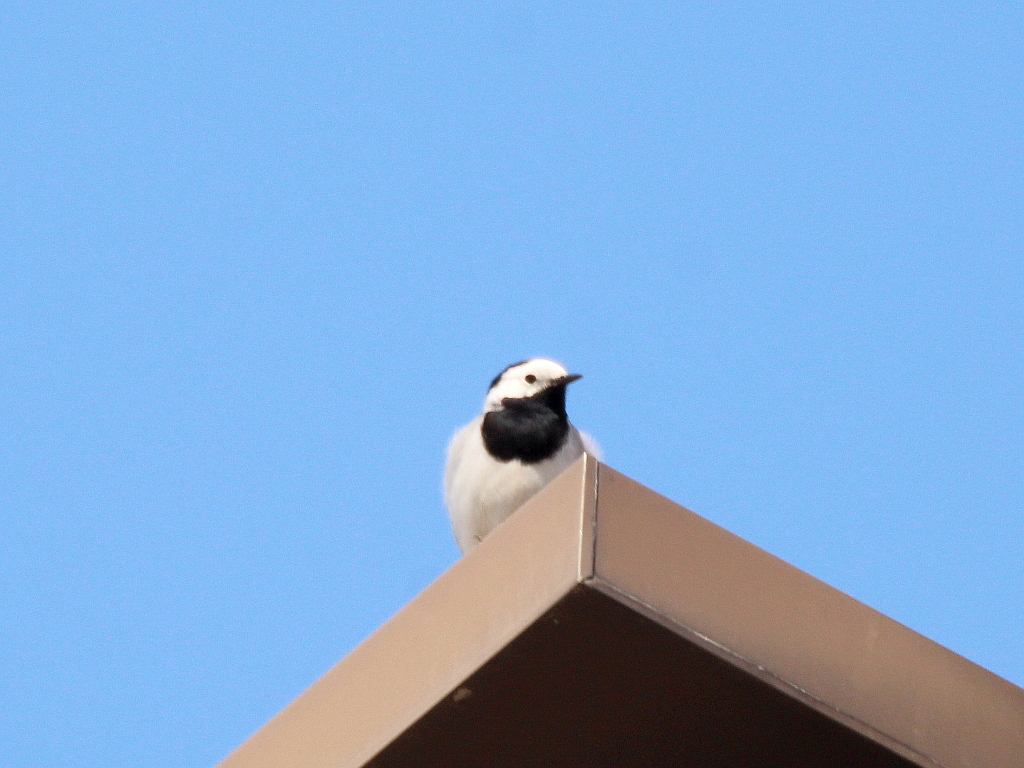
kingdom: Animalia
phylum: Chordata
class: Aves
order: Passeriformes
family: Motacillidae
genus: Motacilla
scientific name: Motacilla alba
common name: White wagtail
